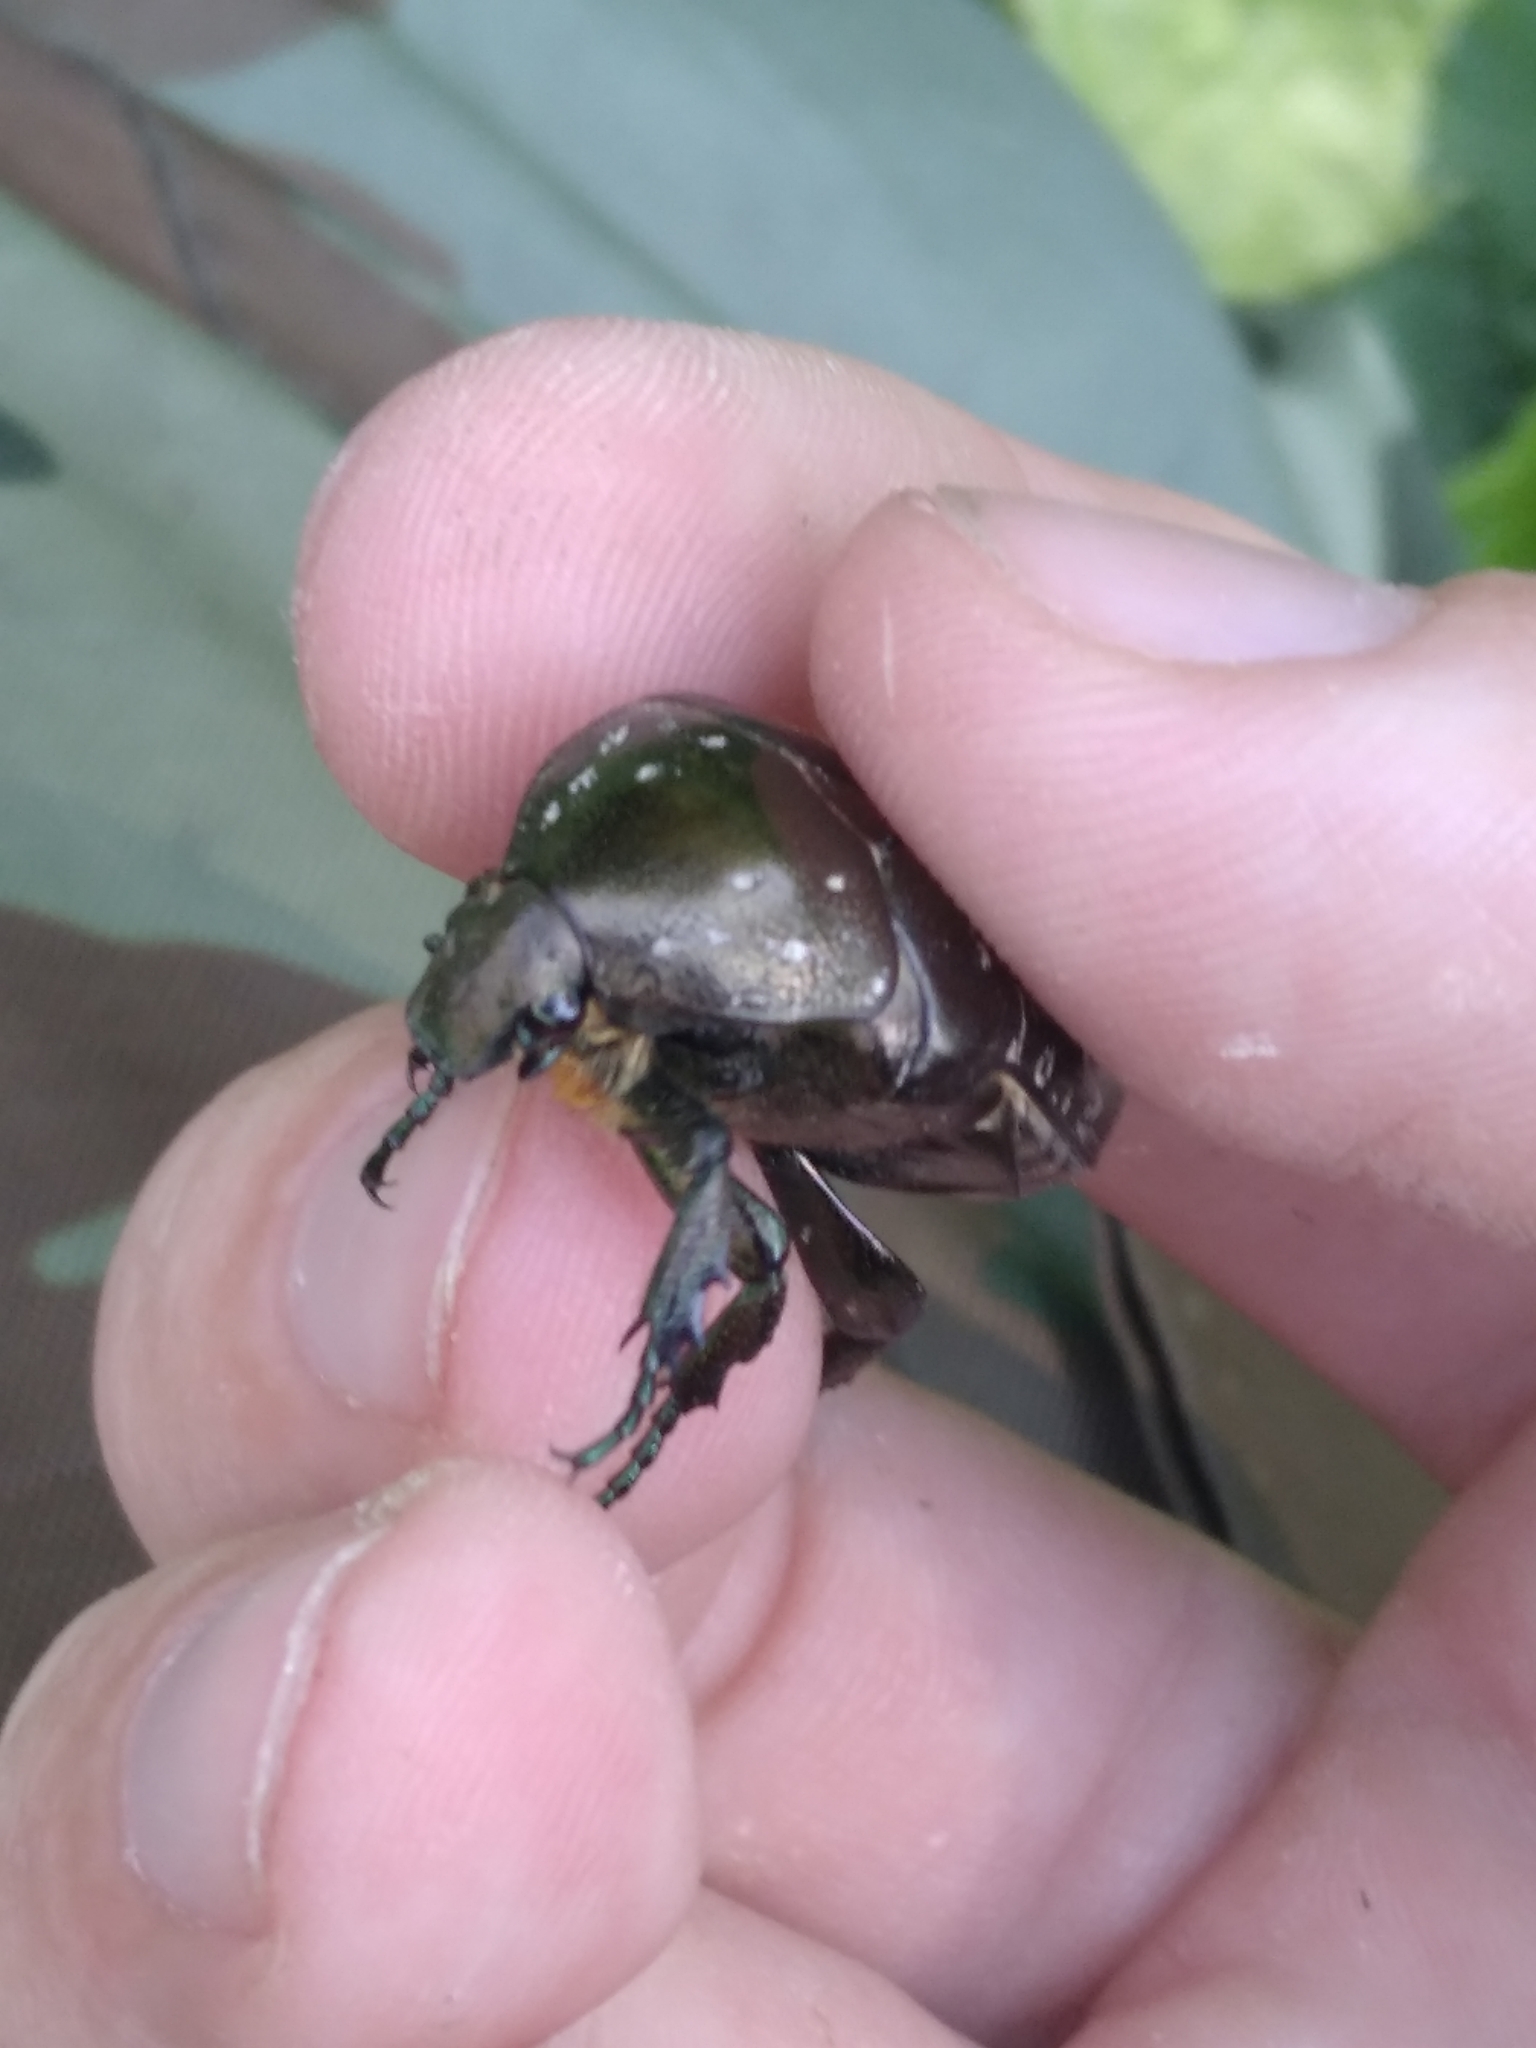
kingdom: Animalia
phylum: Arthropoda
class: Insecta
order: Coleoptera
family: Scarabaeidae
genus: Protaetia
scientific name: Protaetia marmorata
